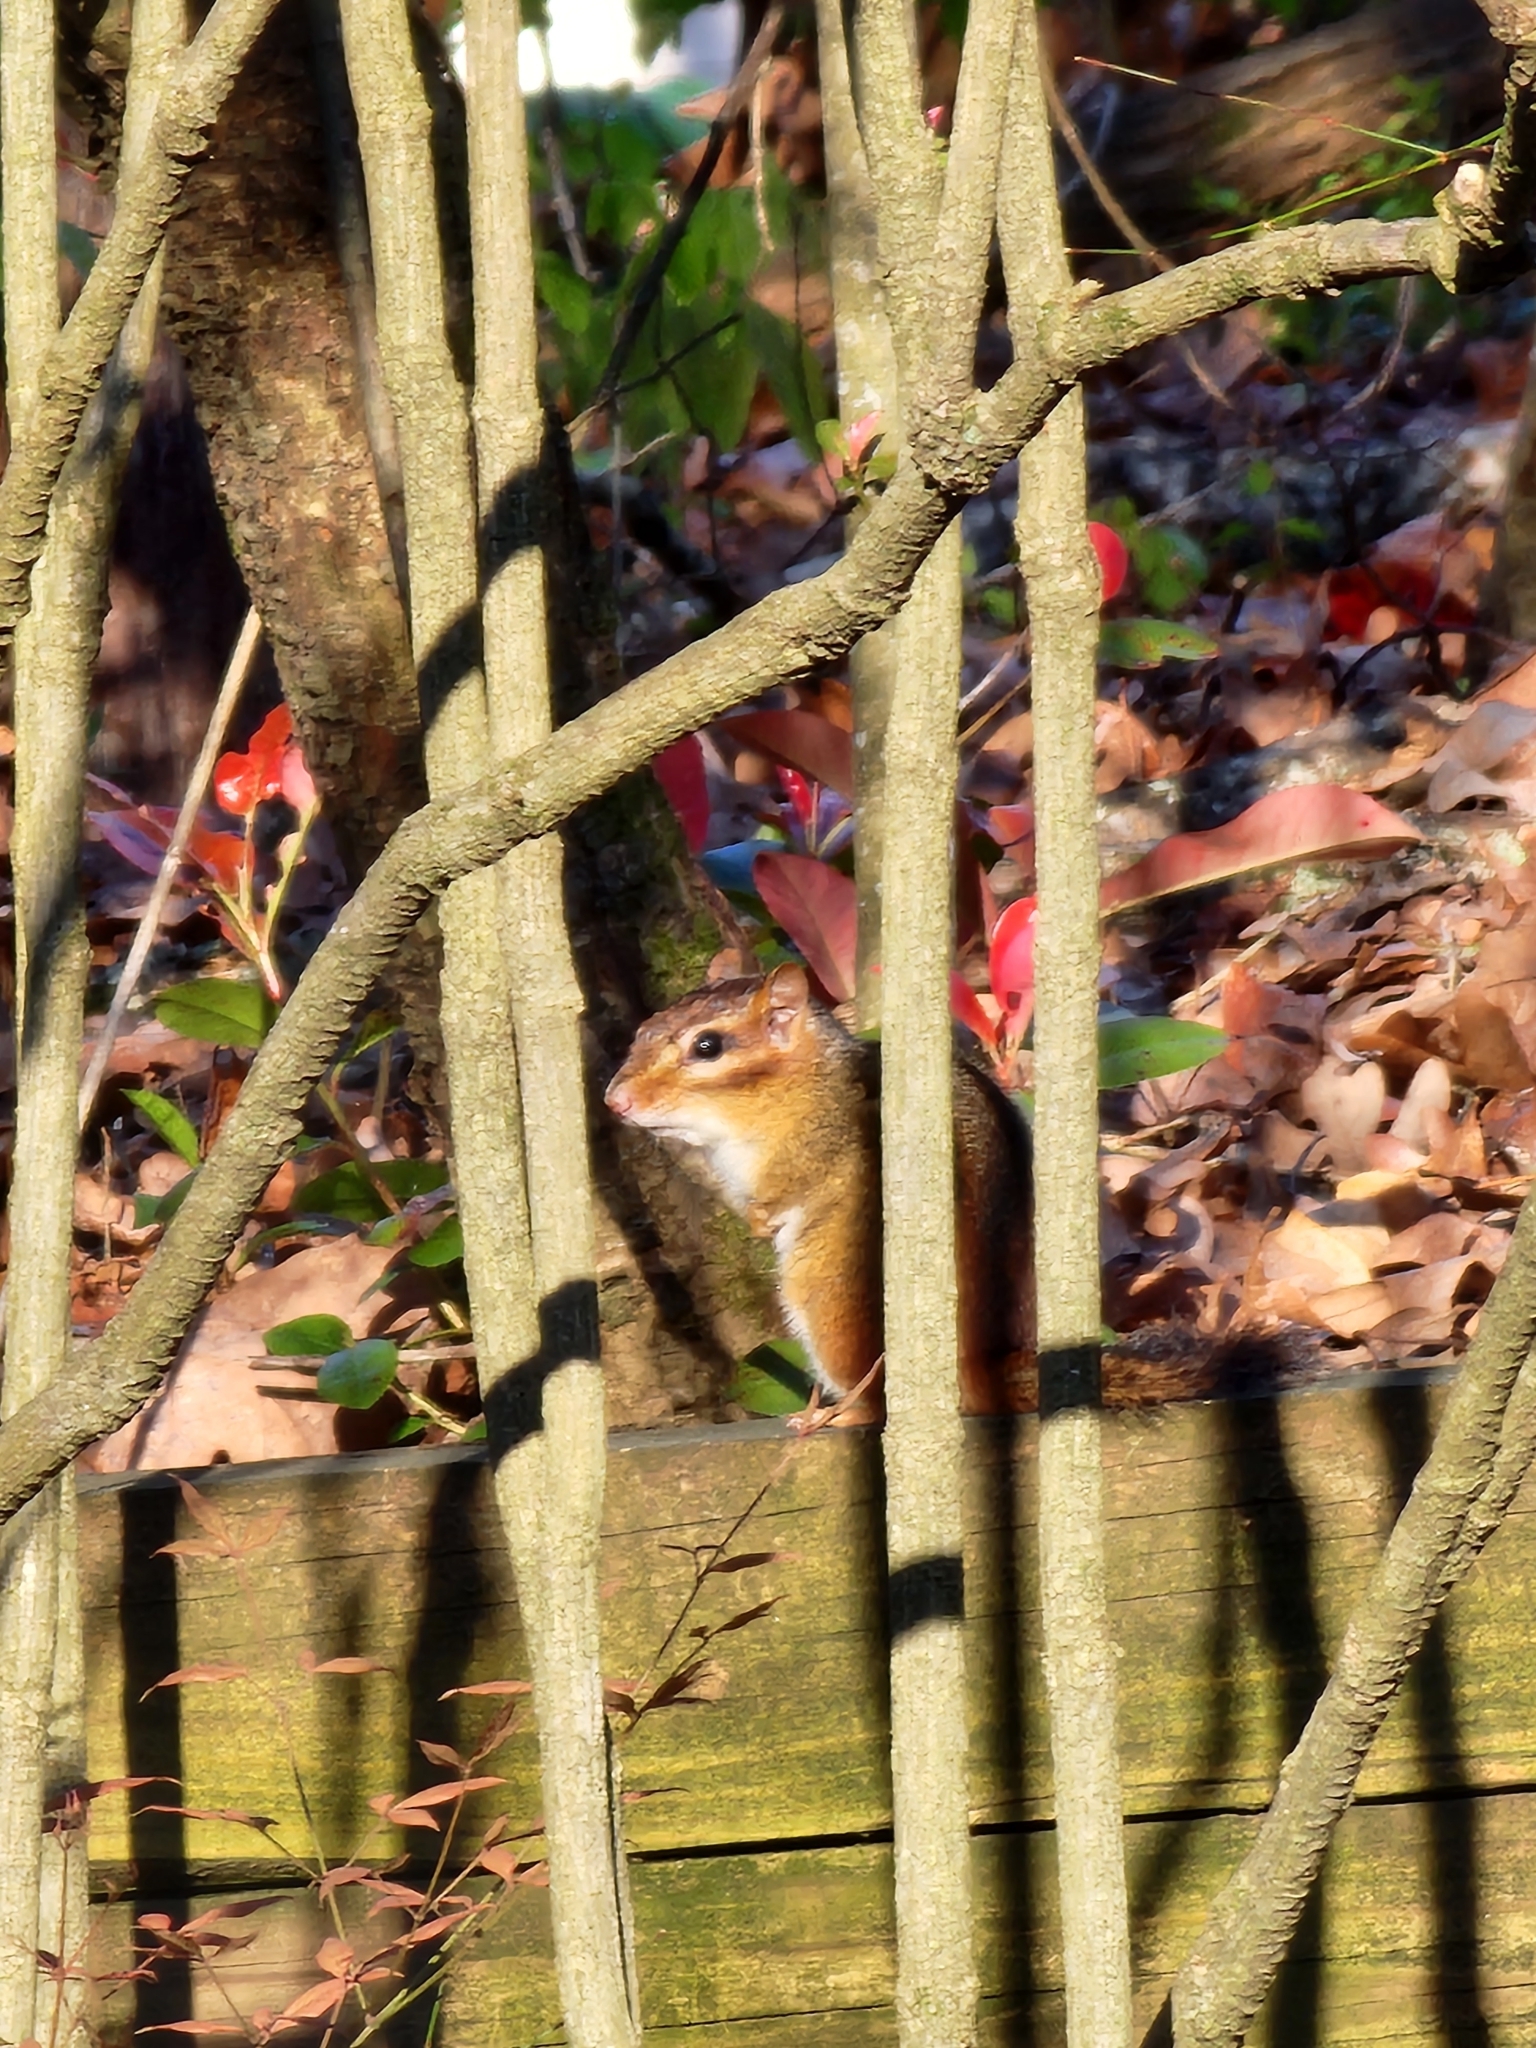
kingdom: Animalia
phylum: Chordata
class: Mammalia
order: Rodentia
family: Sciuridae
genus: Tamias
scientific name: Tamias striatus
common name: Eastern chipmunk
